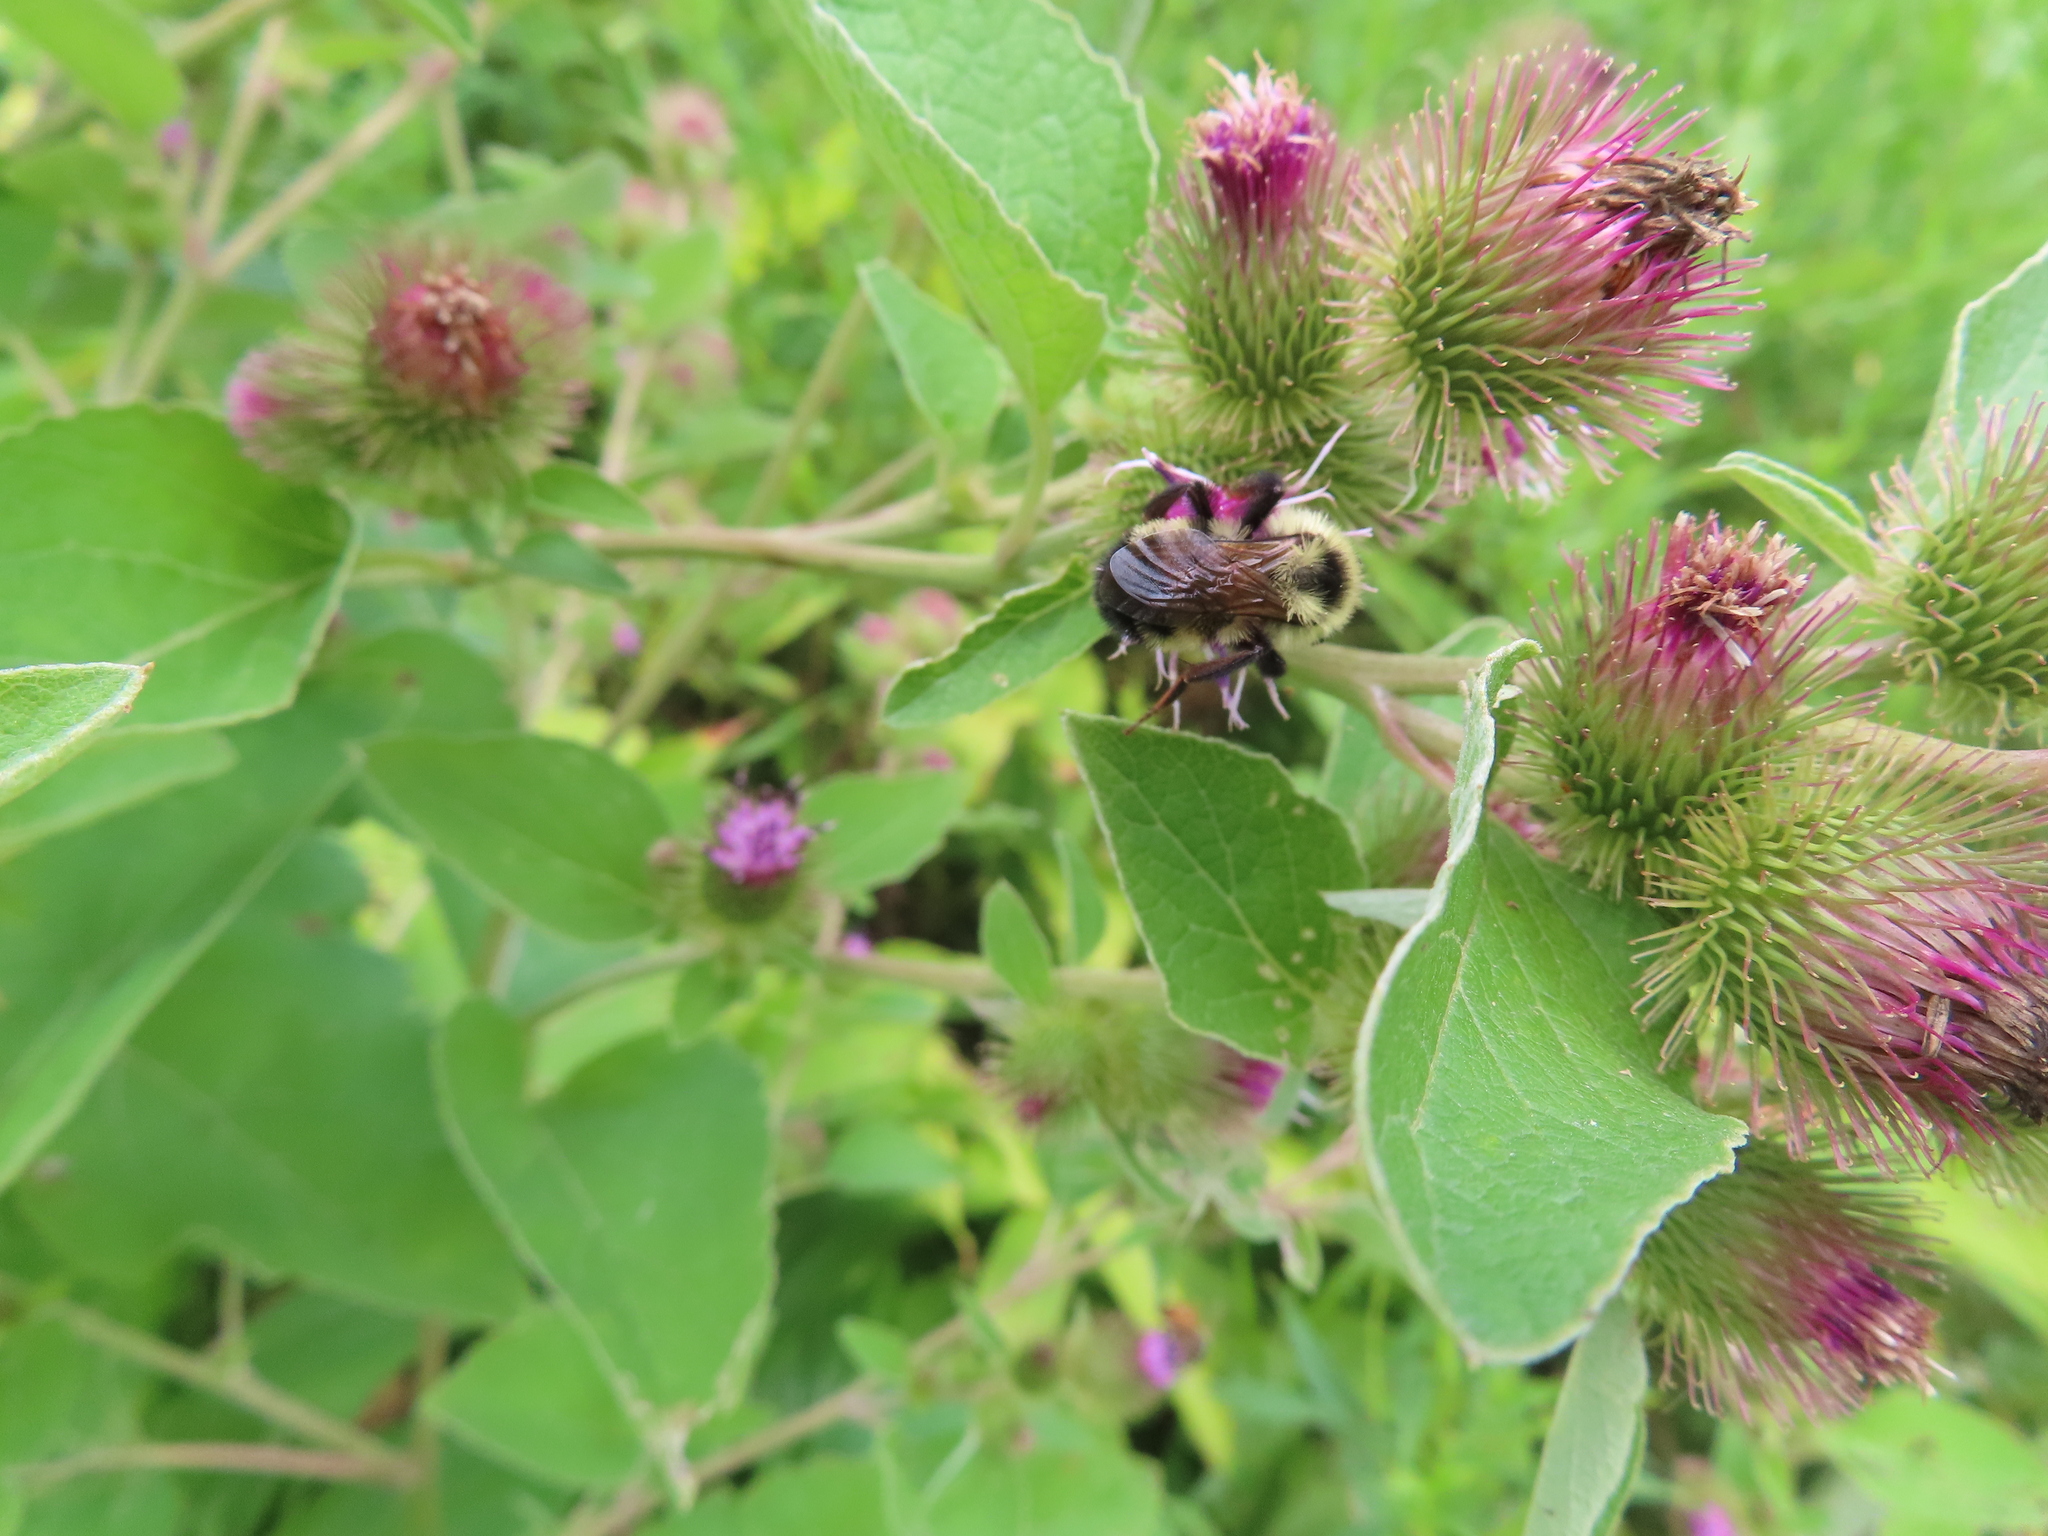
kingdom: Animalia
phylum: Arthropoda
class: Insecta
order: Hymenoptera
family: Apidae
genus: Bombus
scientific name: Bombus citrinus
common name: Lemon cuckoo bumble bee
